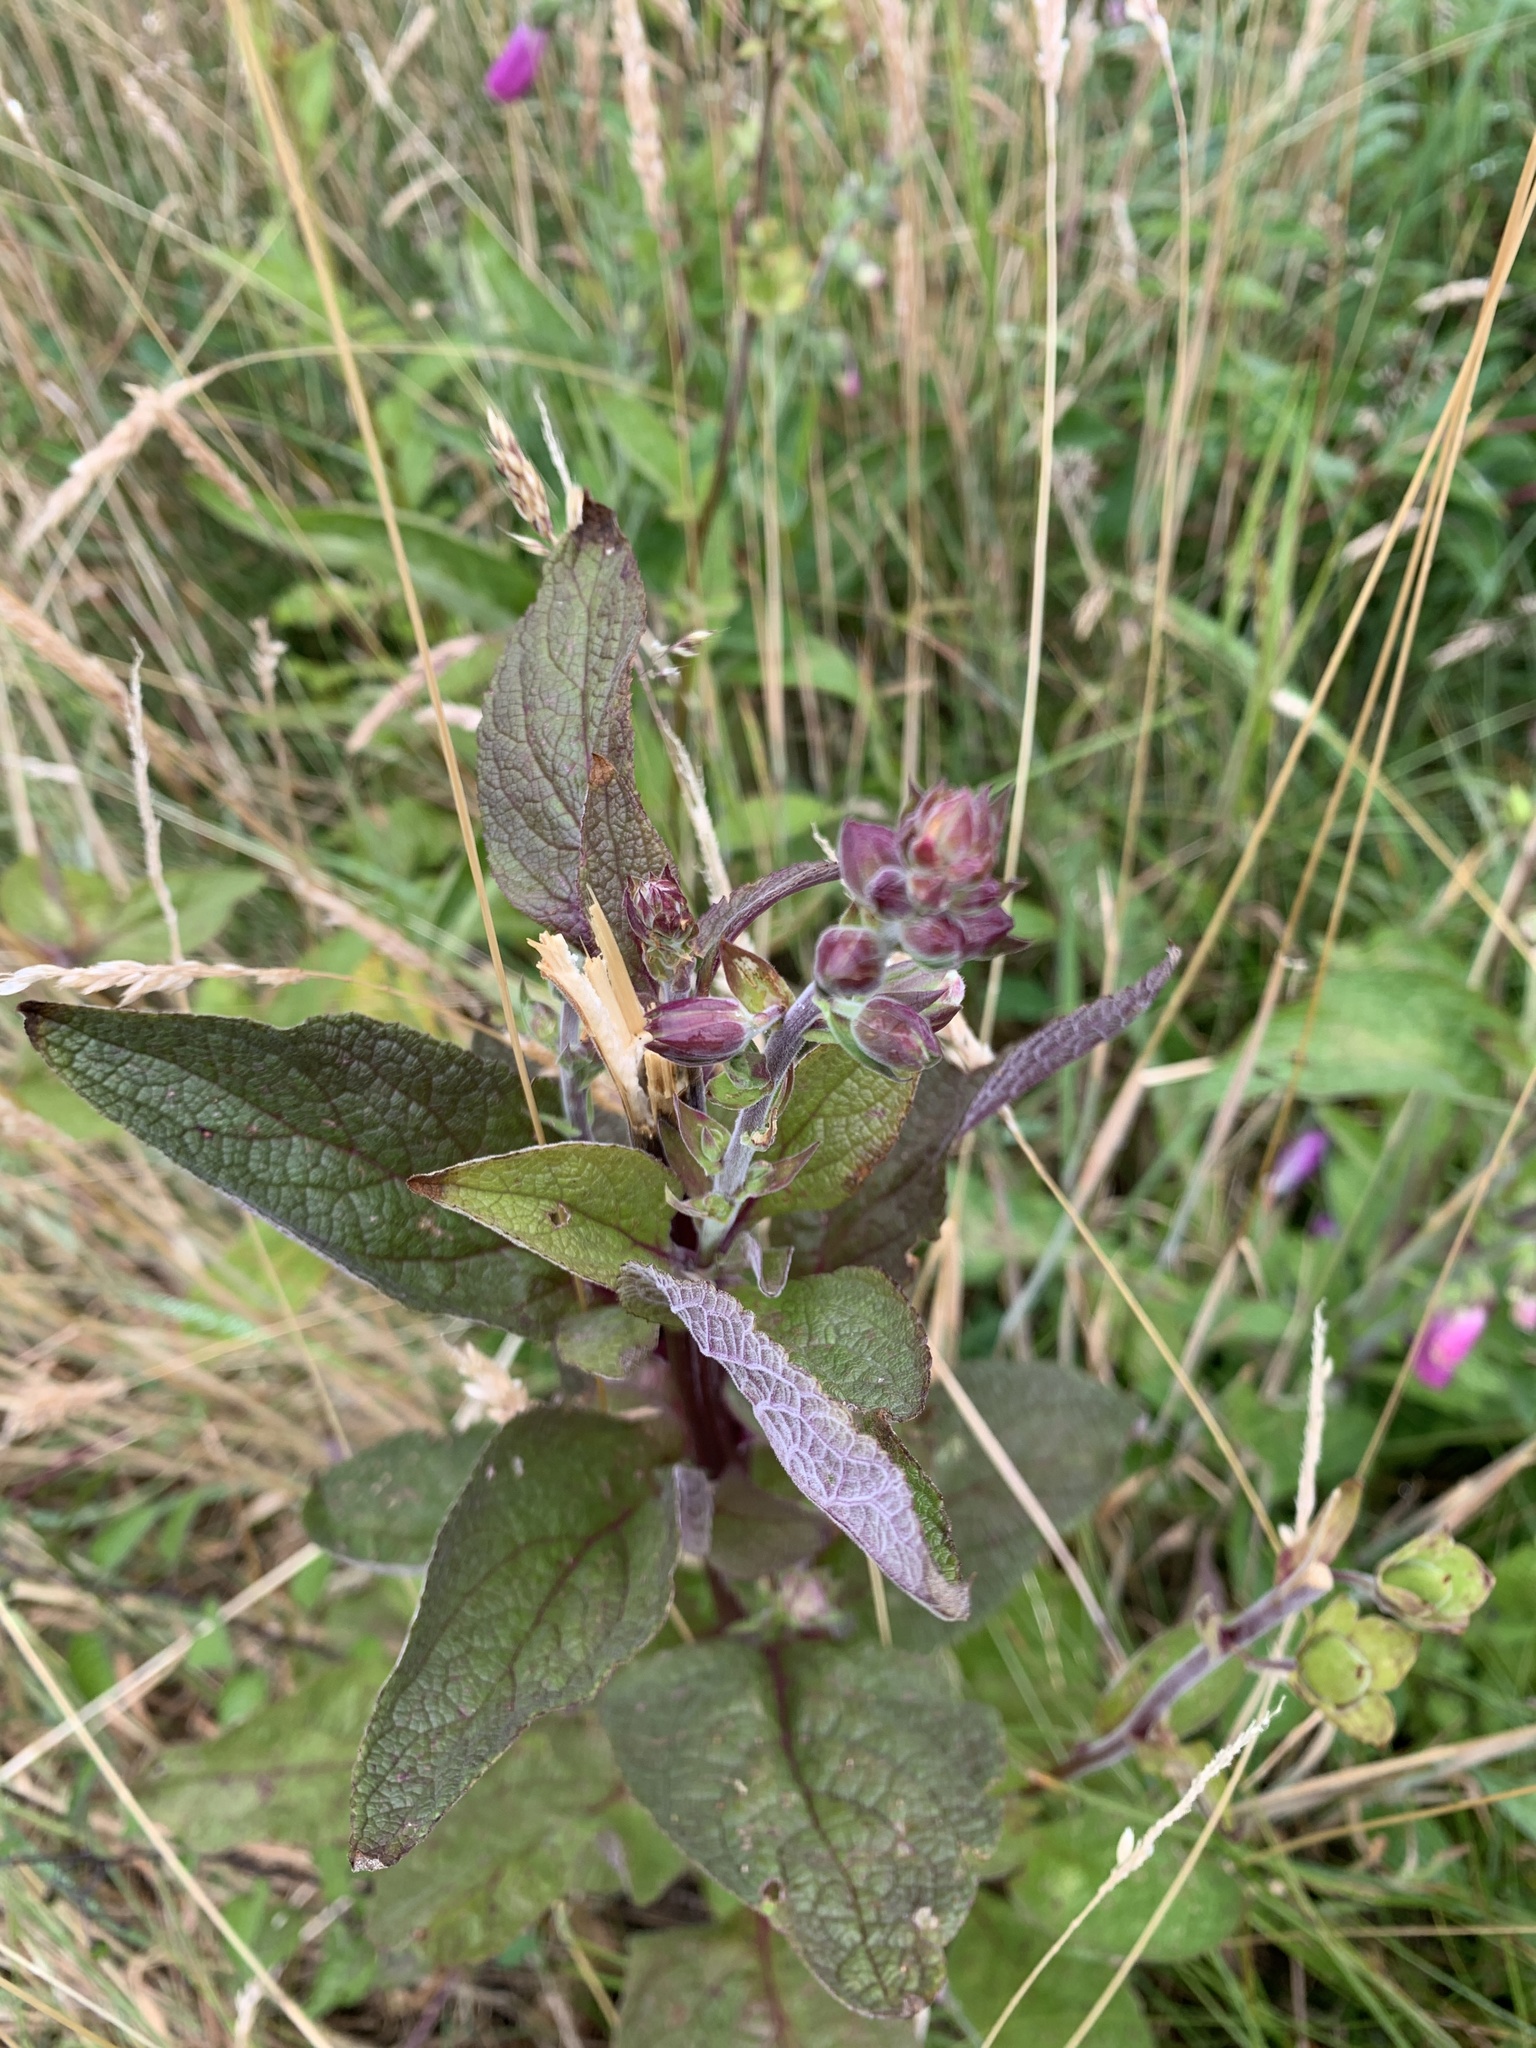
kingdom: Plantae
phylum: Tracheophyta
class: Magnoliopsida
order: Boraginales
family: Boraginaceae
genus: Symphytum
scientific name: Symphytum uplandicum
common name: Russian comfrey
